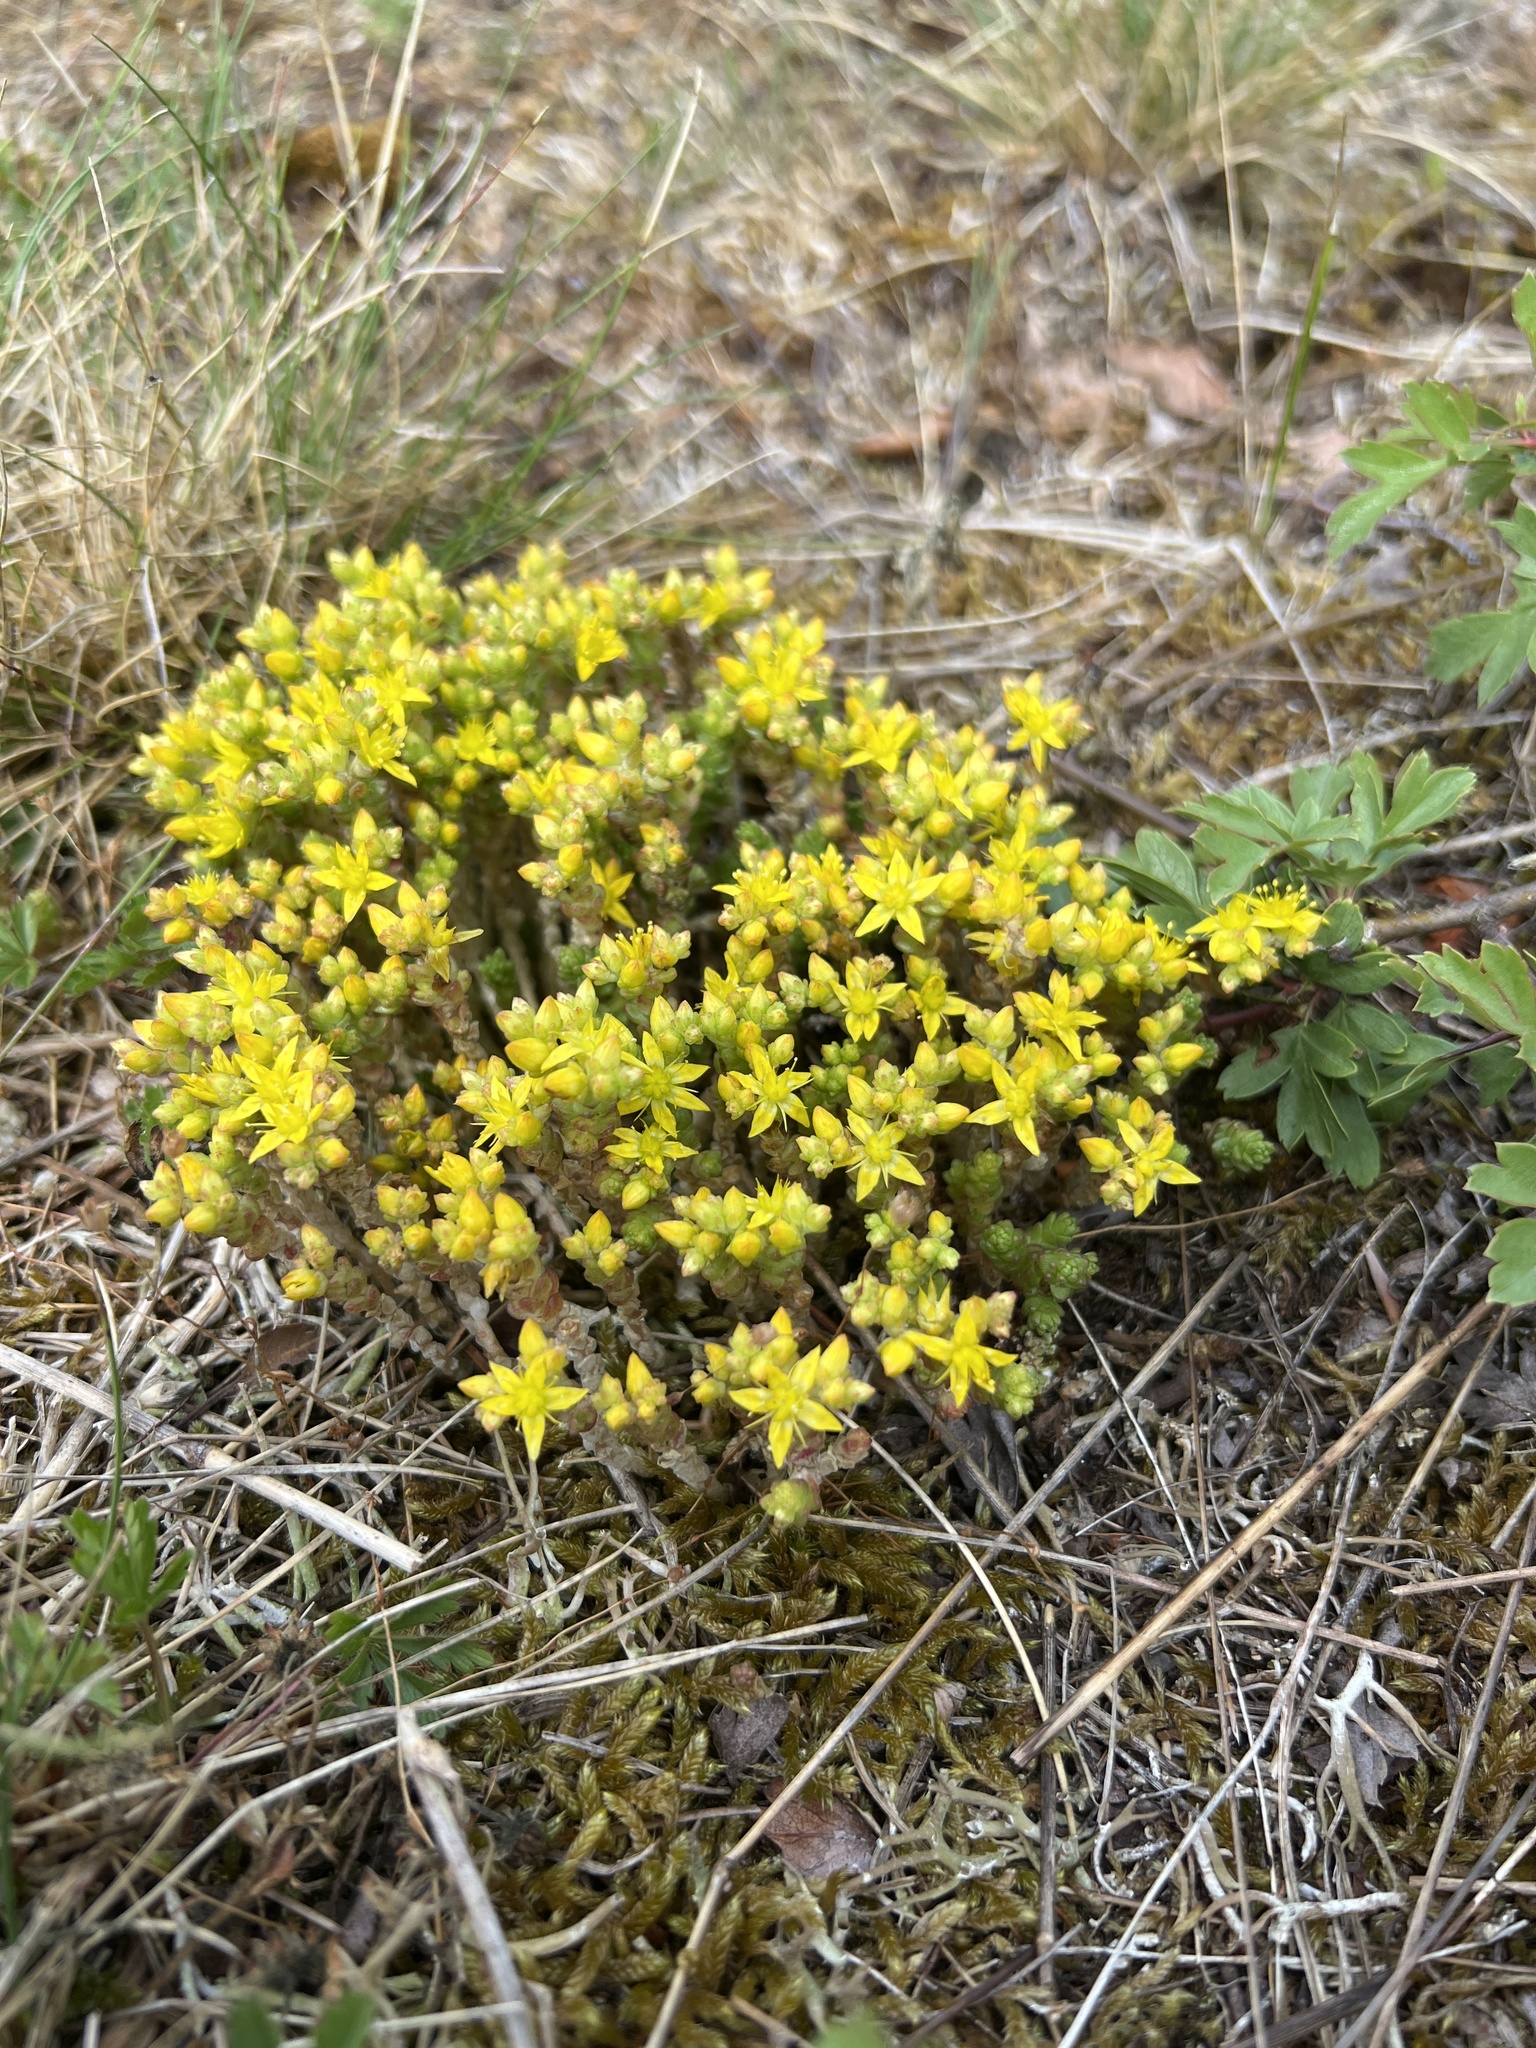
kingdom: Plantae
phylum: Tracheophyta
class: Magnoliopsida
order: Saxifragales
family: Crassulaceae
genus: Sedum
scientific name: Sedum acre
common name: Biting stonecrop
